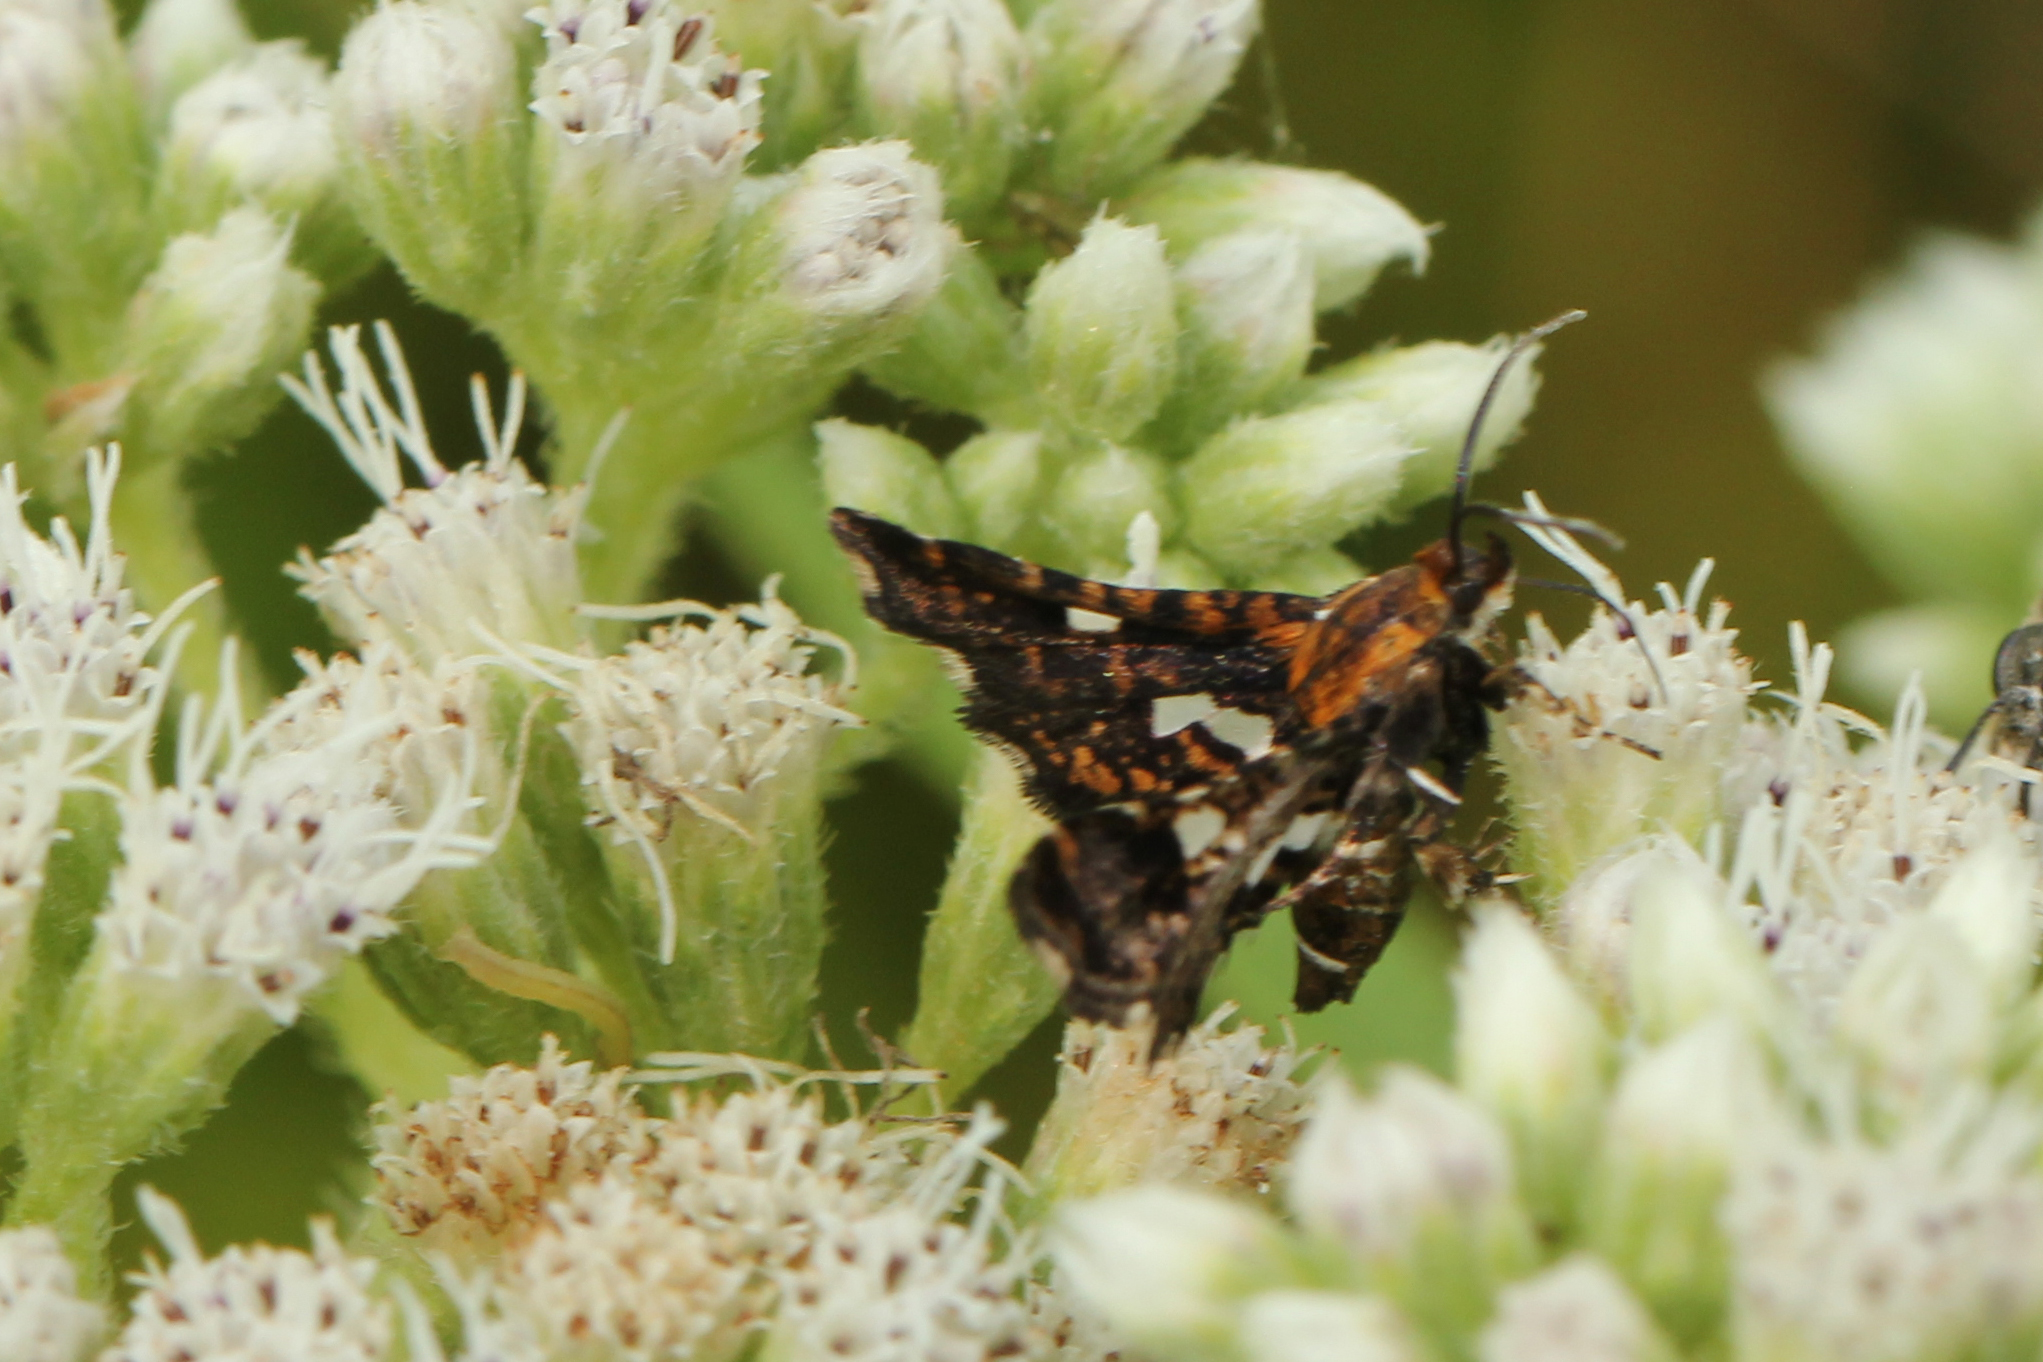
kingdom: Animalia
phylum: Arthropoda
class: Insecta
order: Lepidoptera
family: Thyrididae
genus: Thyris
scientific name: Thyris maculata
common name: Spotted thyris moth
